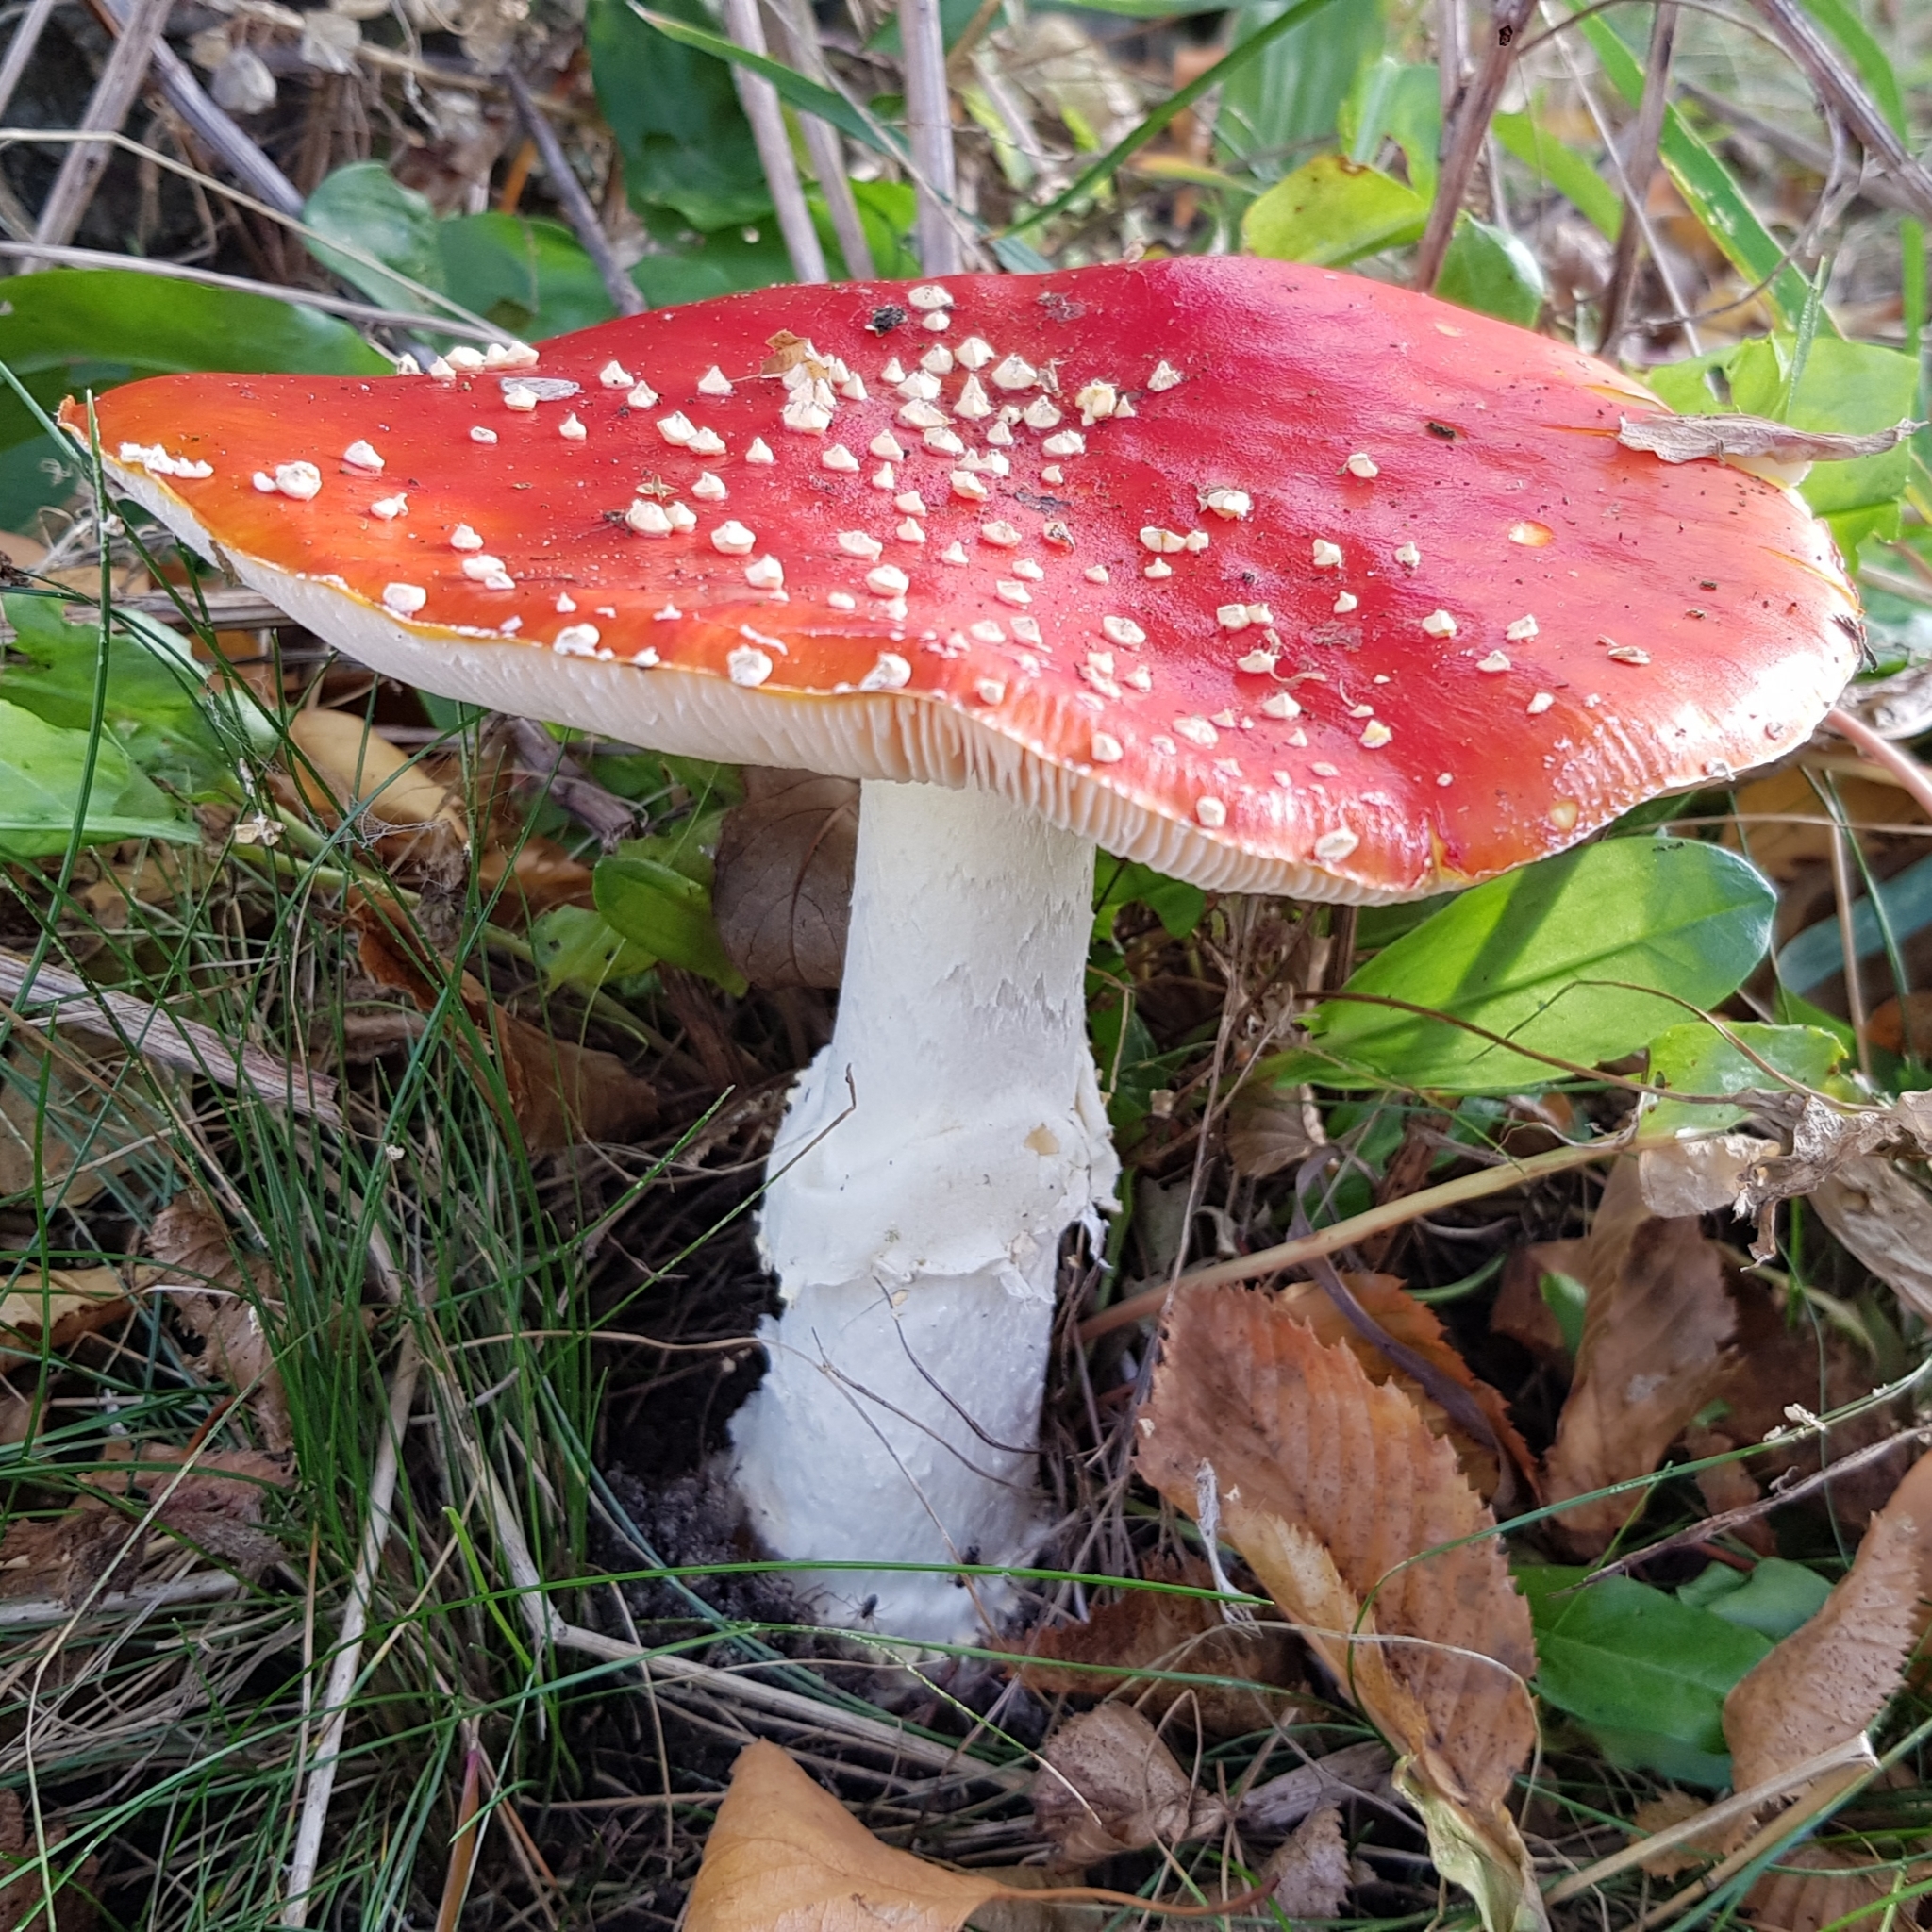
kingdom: Fungi
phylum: Basidiomycota
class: Agaricomycetes
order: Agaricales
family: Amanitaceae
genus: Amanita
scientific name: Amanita muscaria
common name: Fly agaric
